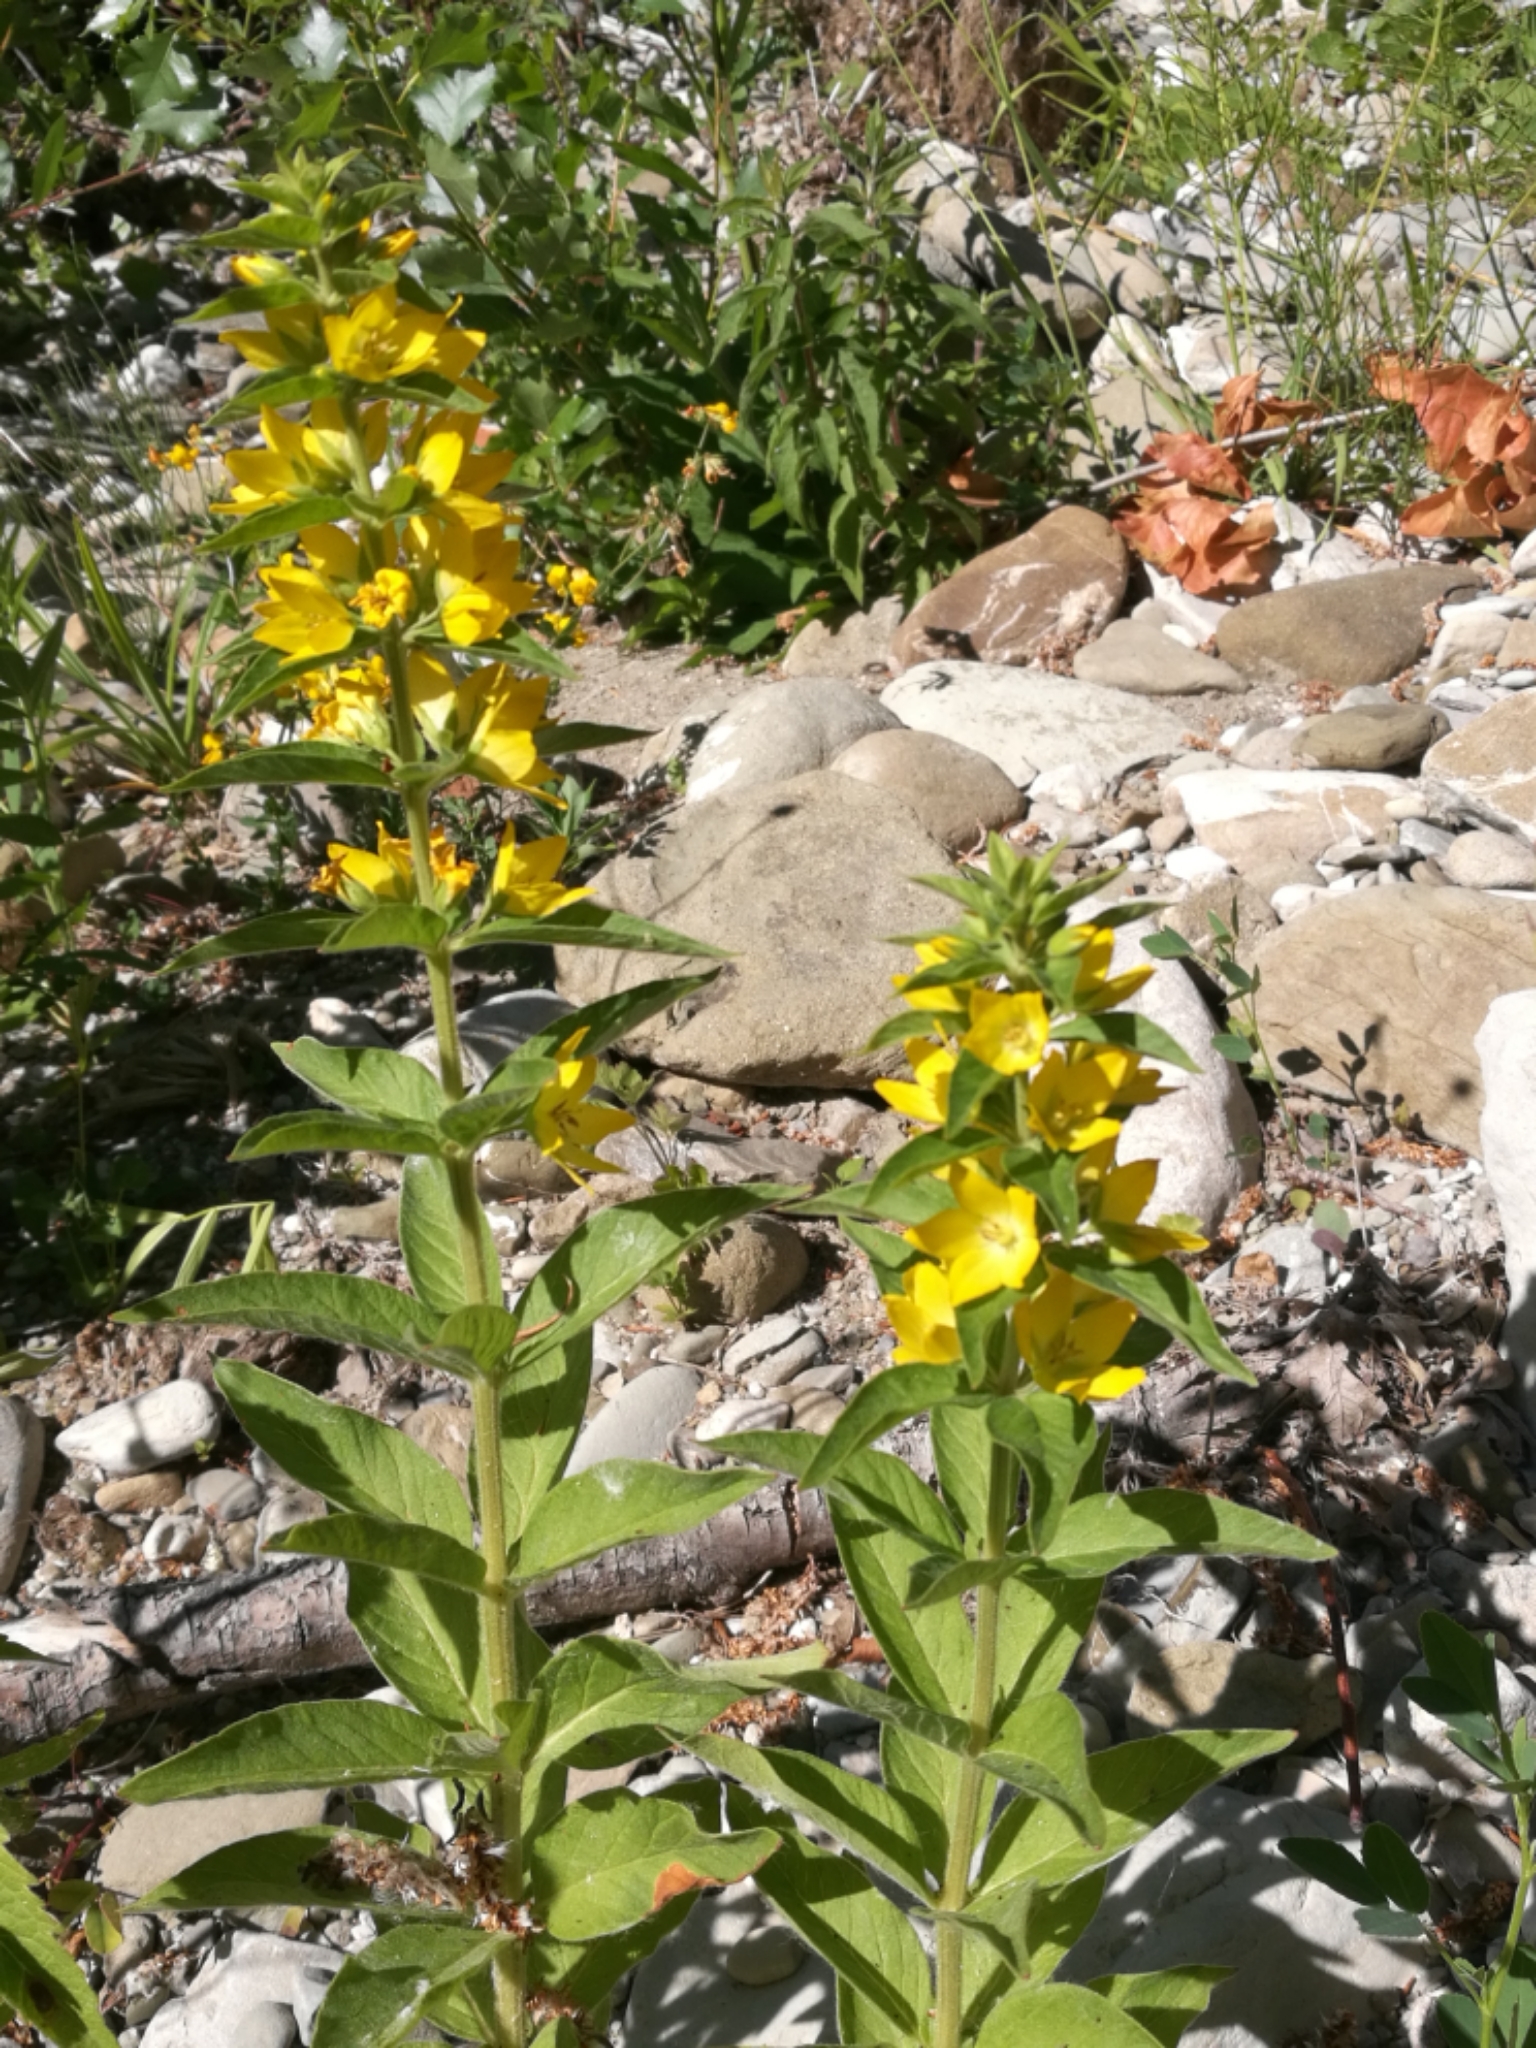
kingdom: Plantae
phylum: Tracheophyta
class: Magnoliopsida
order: Ericales
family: Primulaceae
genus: Lysimachia
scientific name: Lysimachia punctata
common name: Dotted loosestrife
